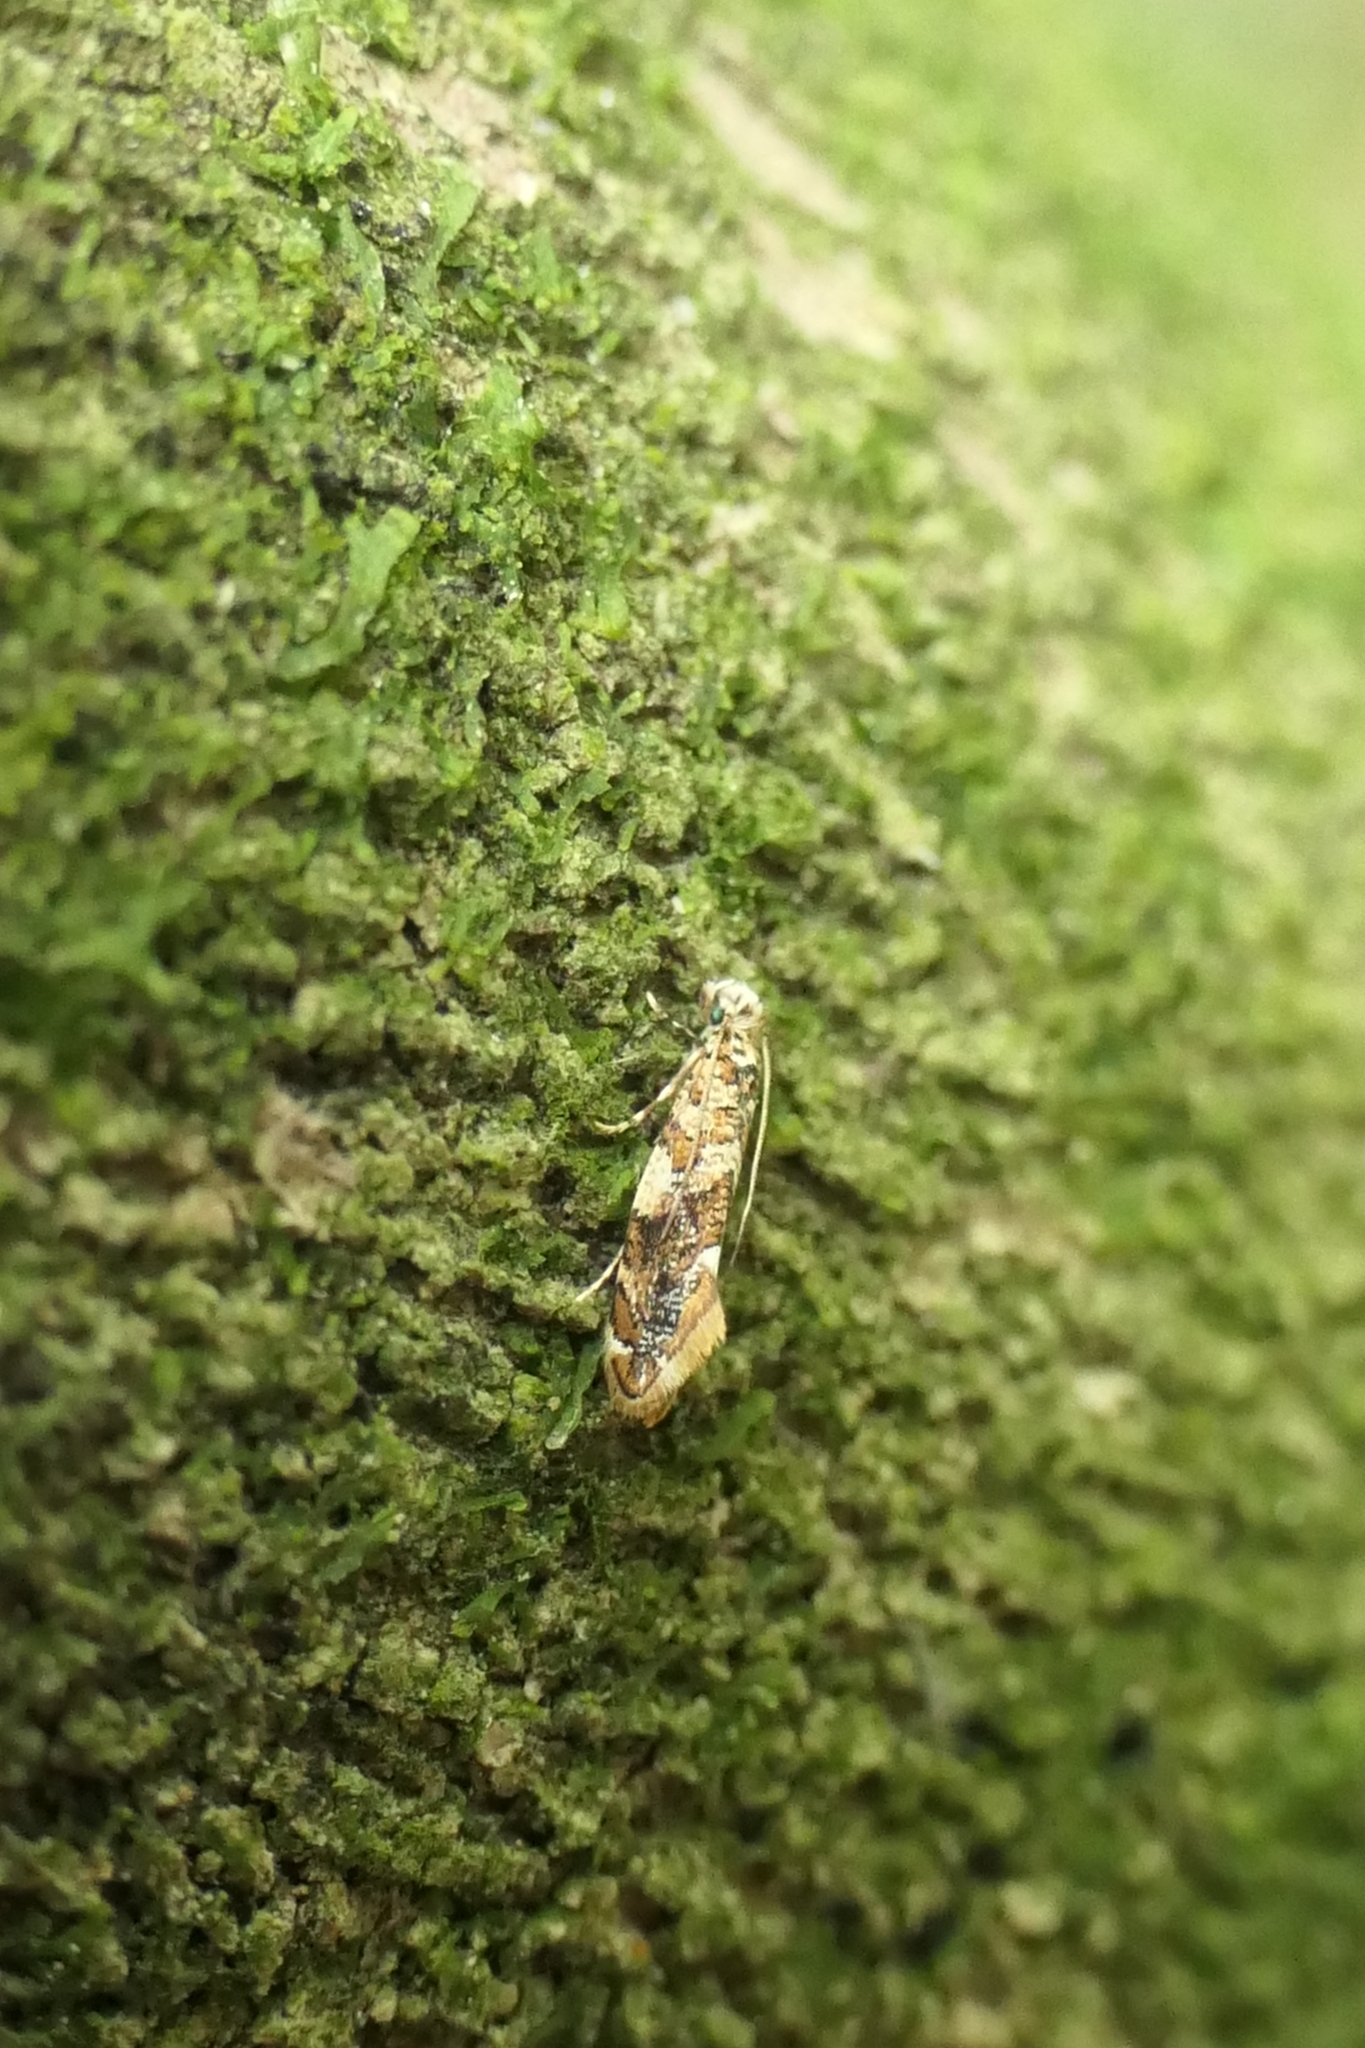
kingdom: Animalia
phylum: Arthropoda
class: Insecta
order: Lepidoptera
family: Tineidae
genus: Eschatotypa
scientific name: Eschatotypa derogatella
